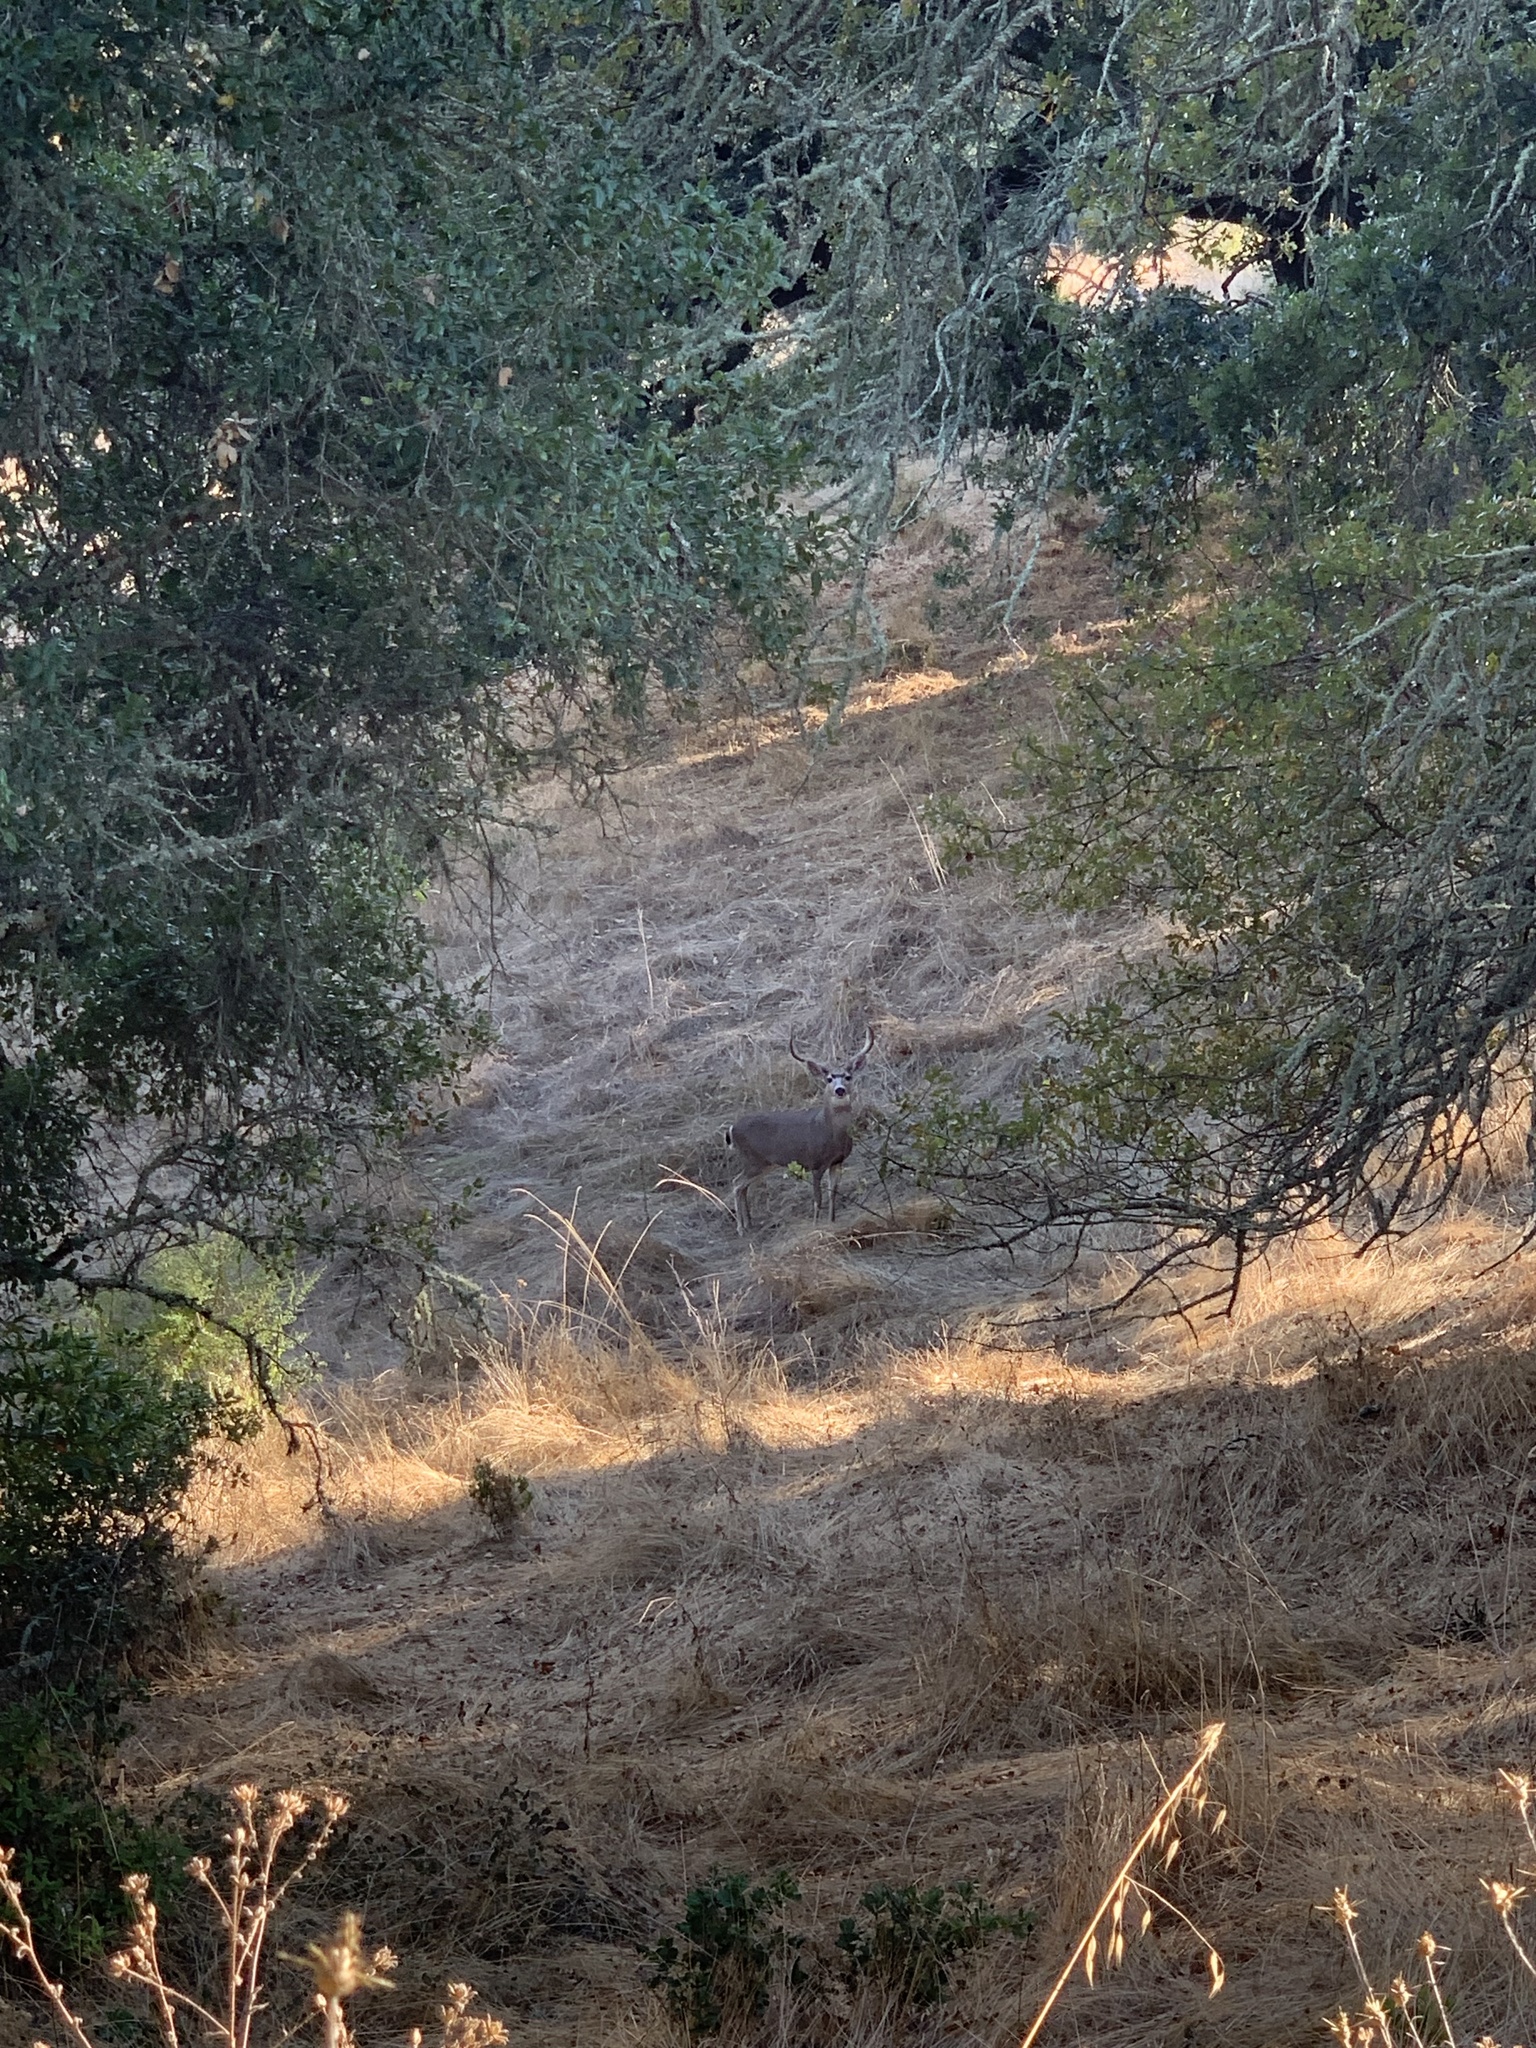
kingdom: Animalia
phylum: Chordata
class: Mammalia
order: Artiodactyla
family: Cervidae
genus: Odocoileus
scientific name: Odocoileus hemionus
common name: Mule deer
